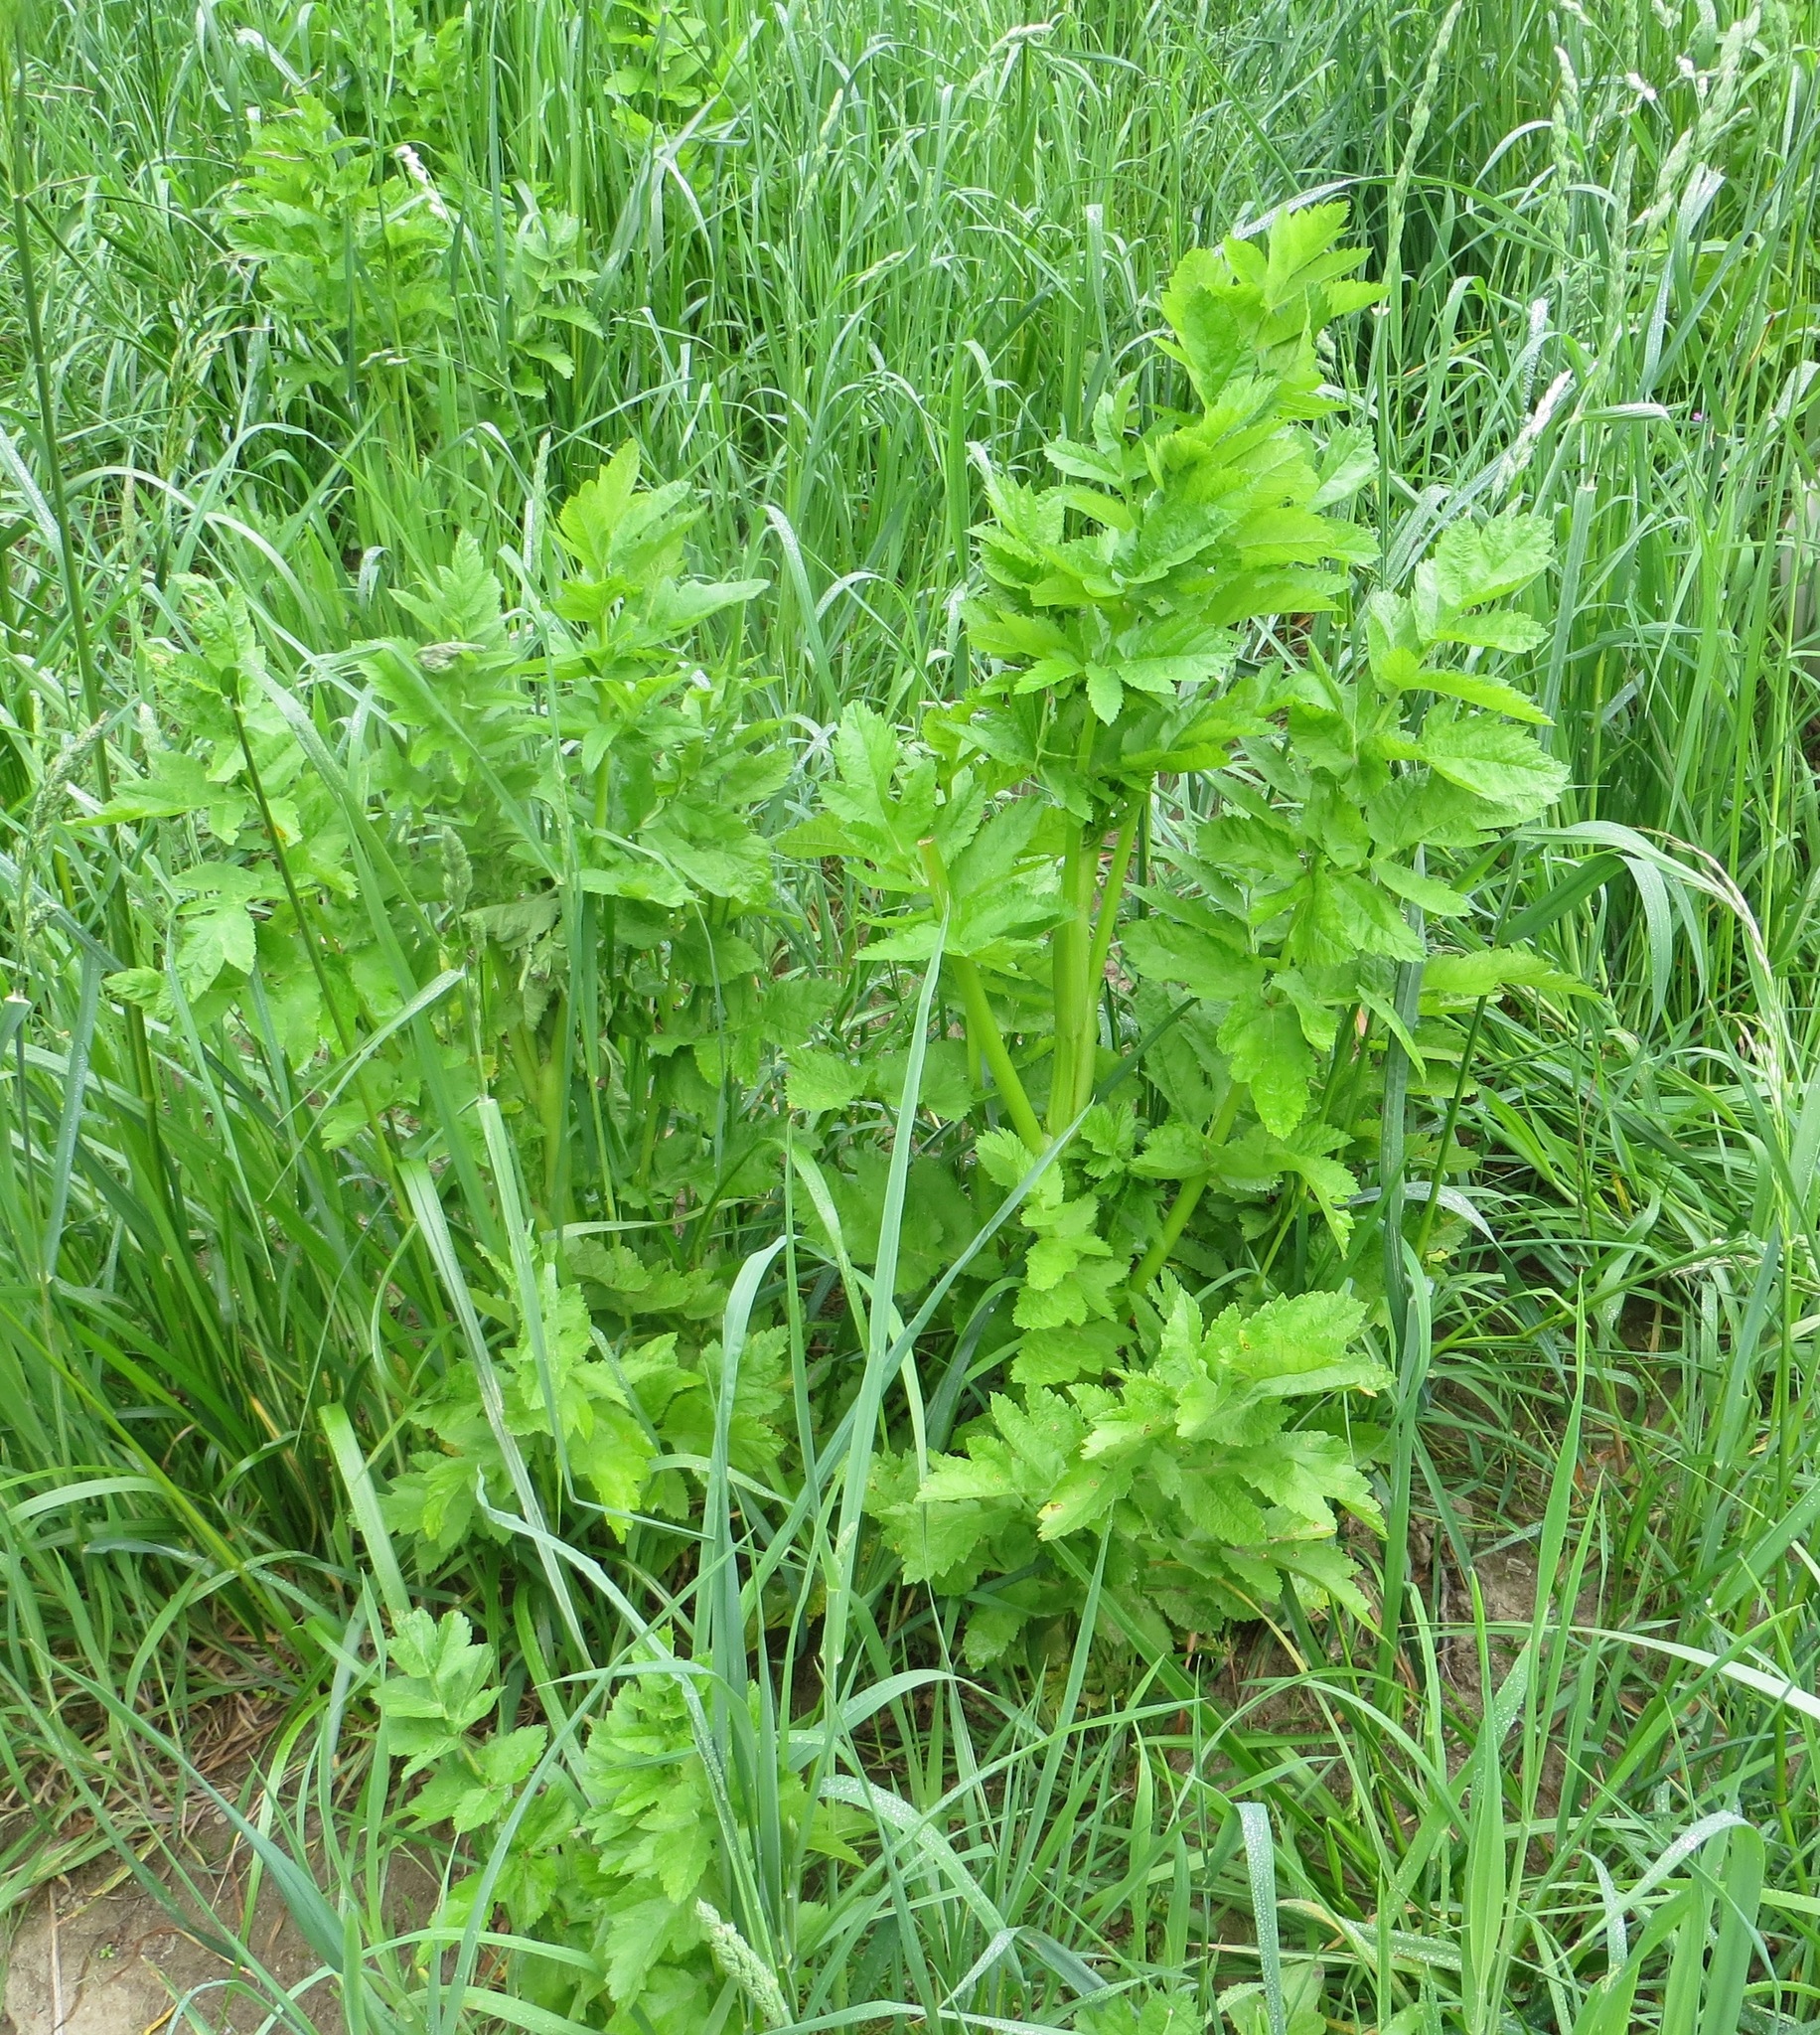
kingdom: Plantae
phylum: Tracheophyta
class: Magnoliopsida
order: Apiales
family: Apiaceae
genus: Pastinaca
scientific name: Pastinaca sativa
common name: Wild parsnip
